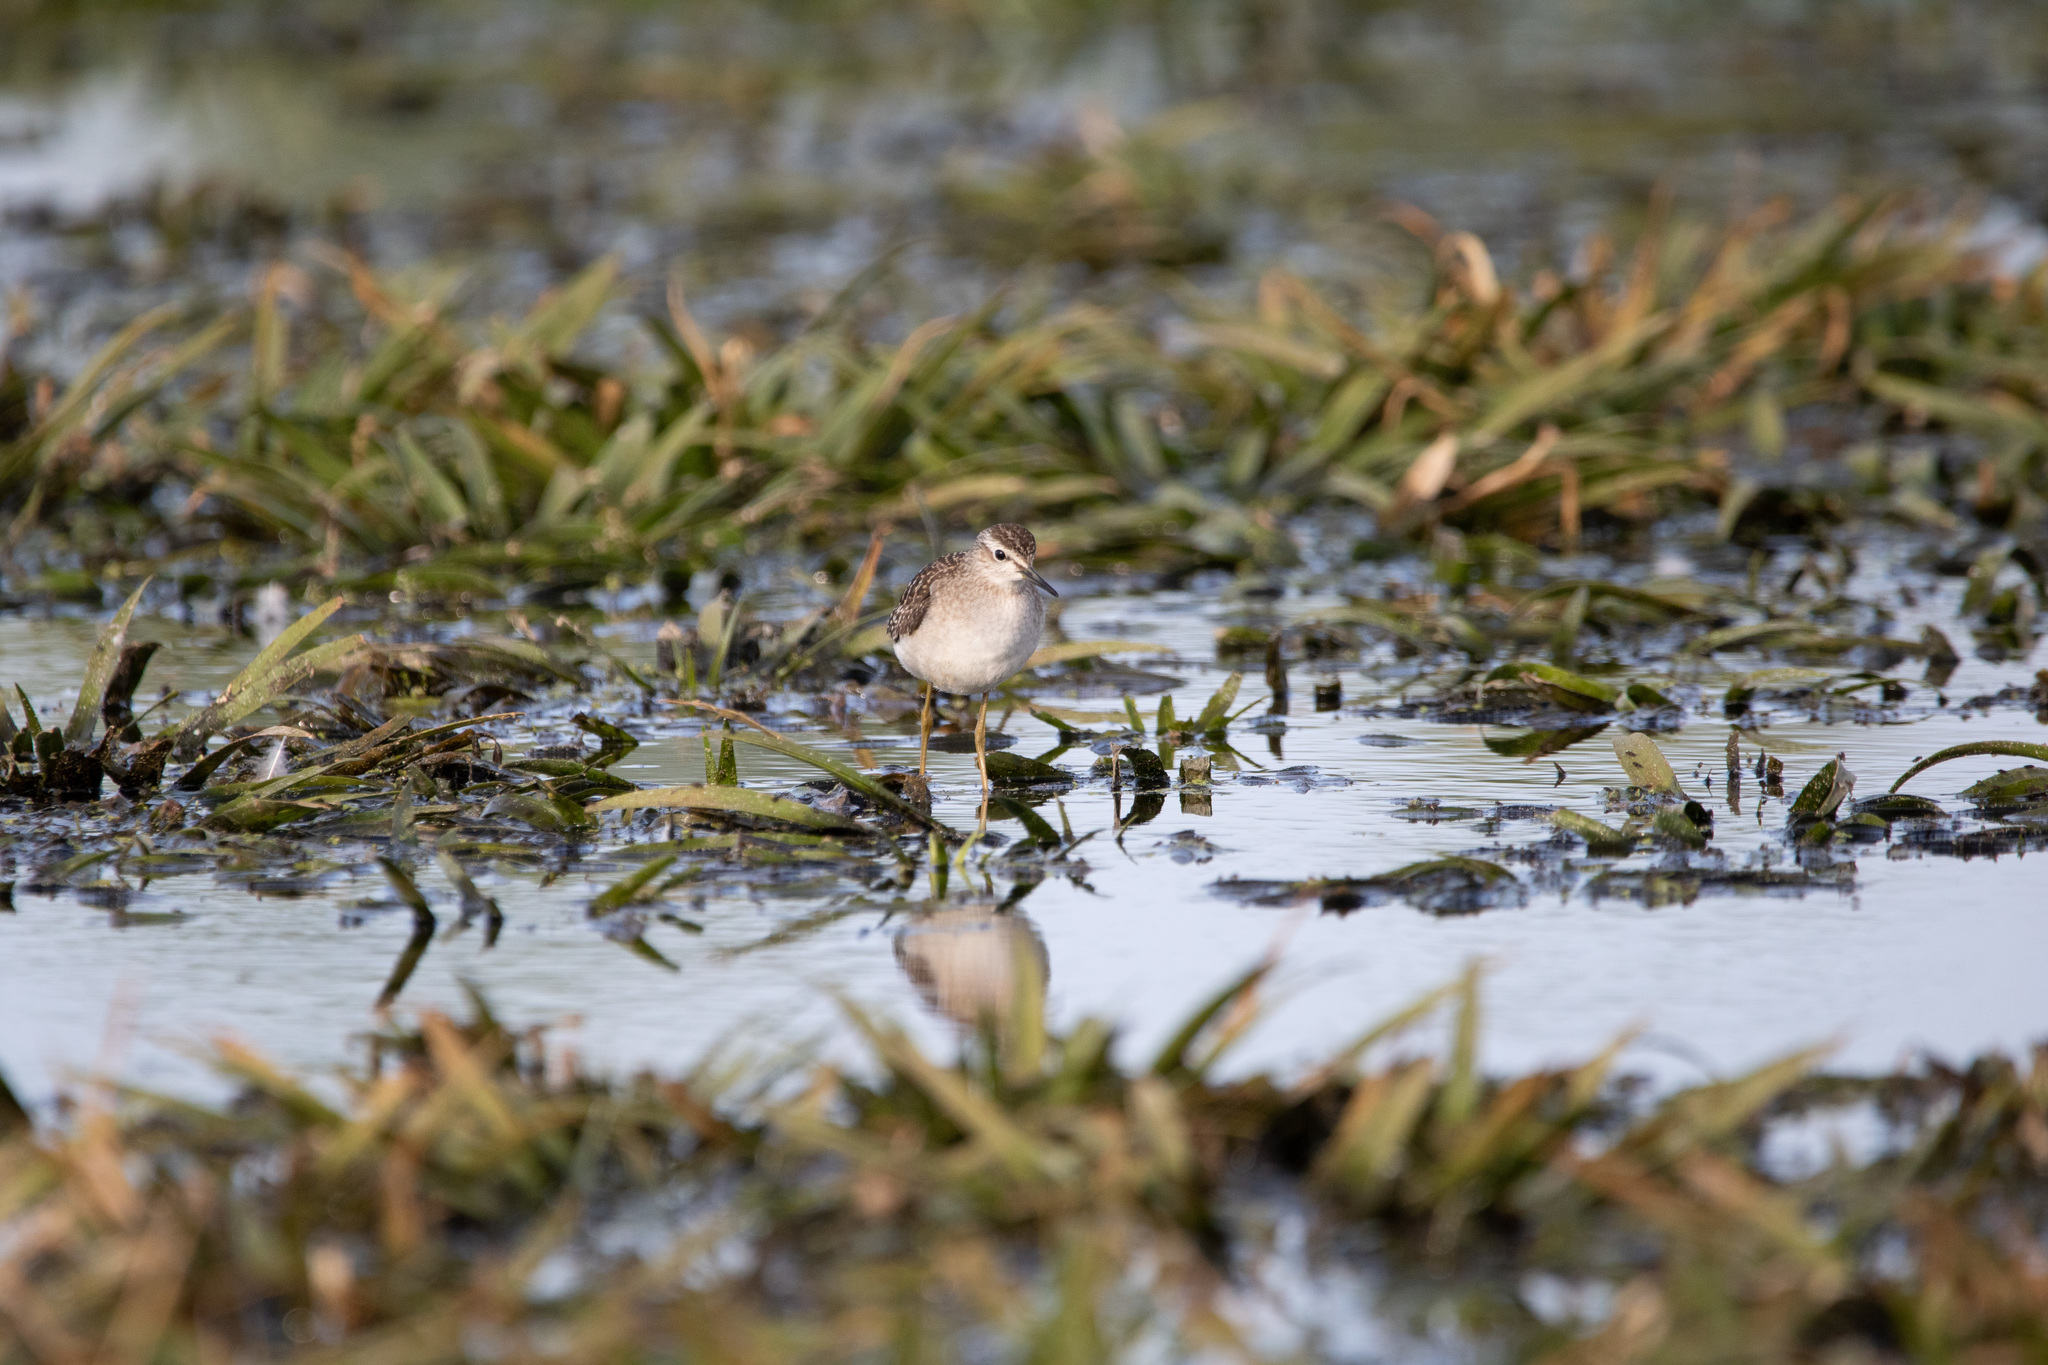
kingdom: Animalia
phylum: Chordata
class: Aves
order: Charadriiformes
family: Scolopacidae
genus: Tringa
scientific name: Tringa glareola
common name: Wood sandpiper
